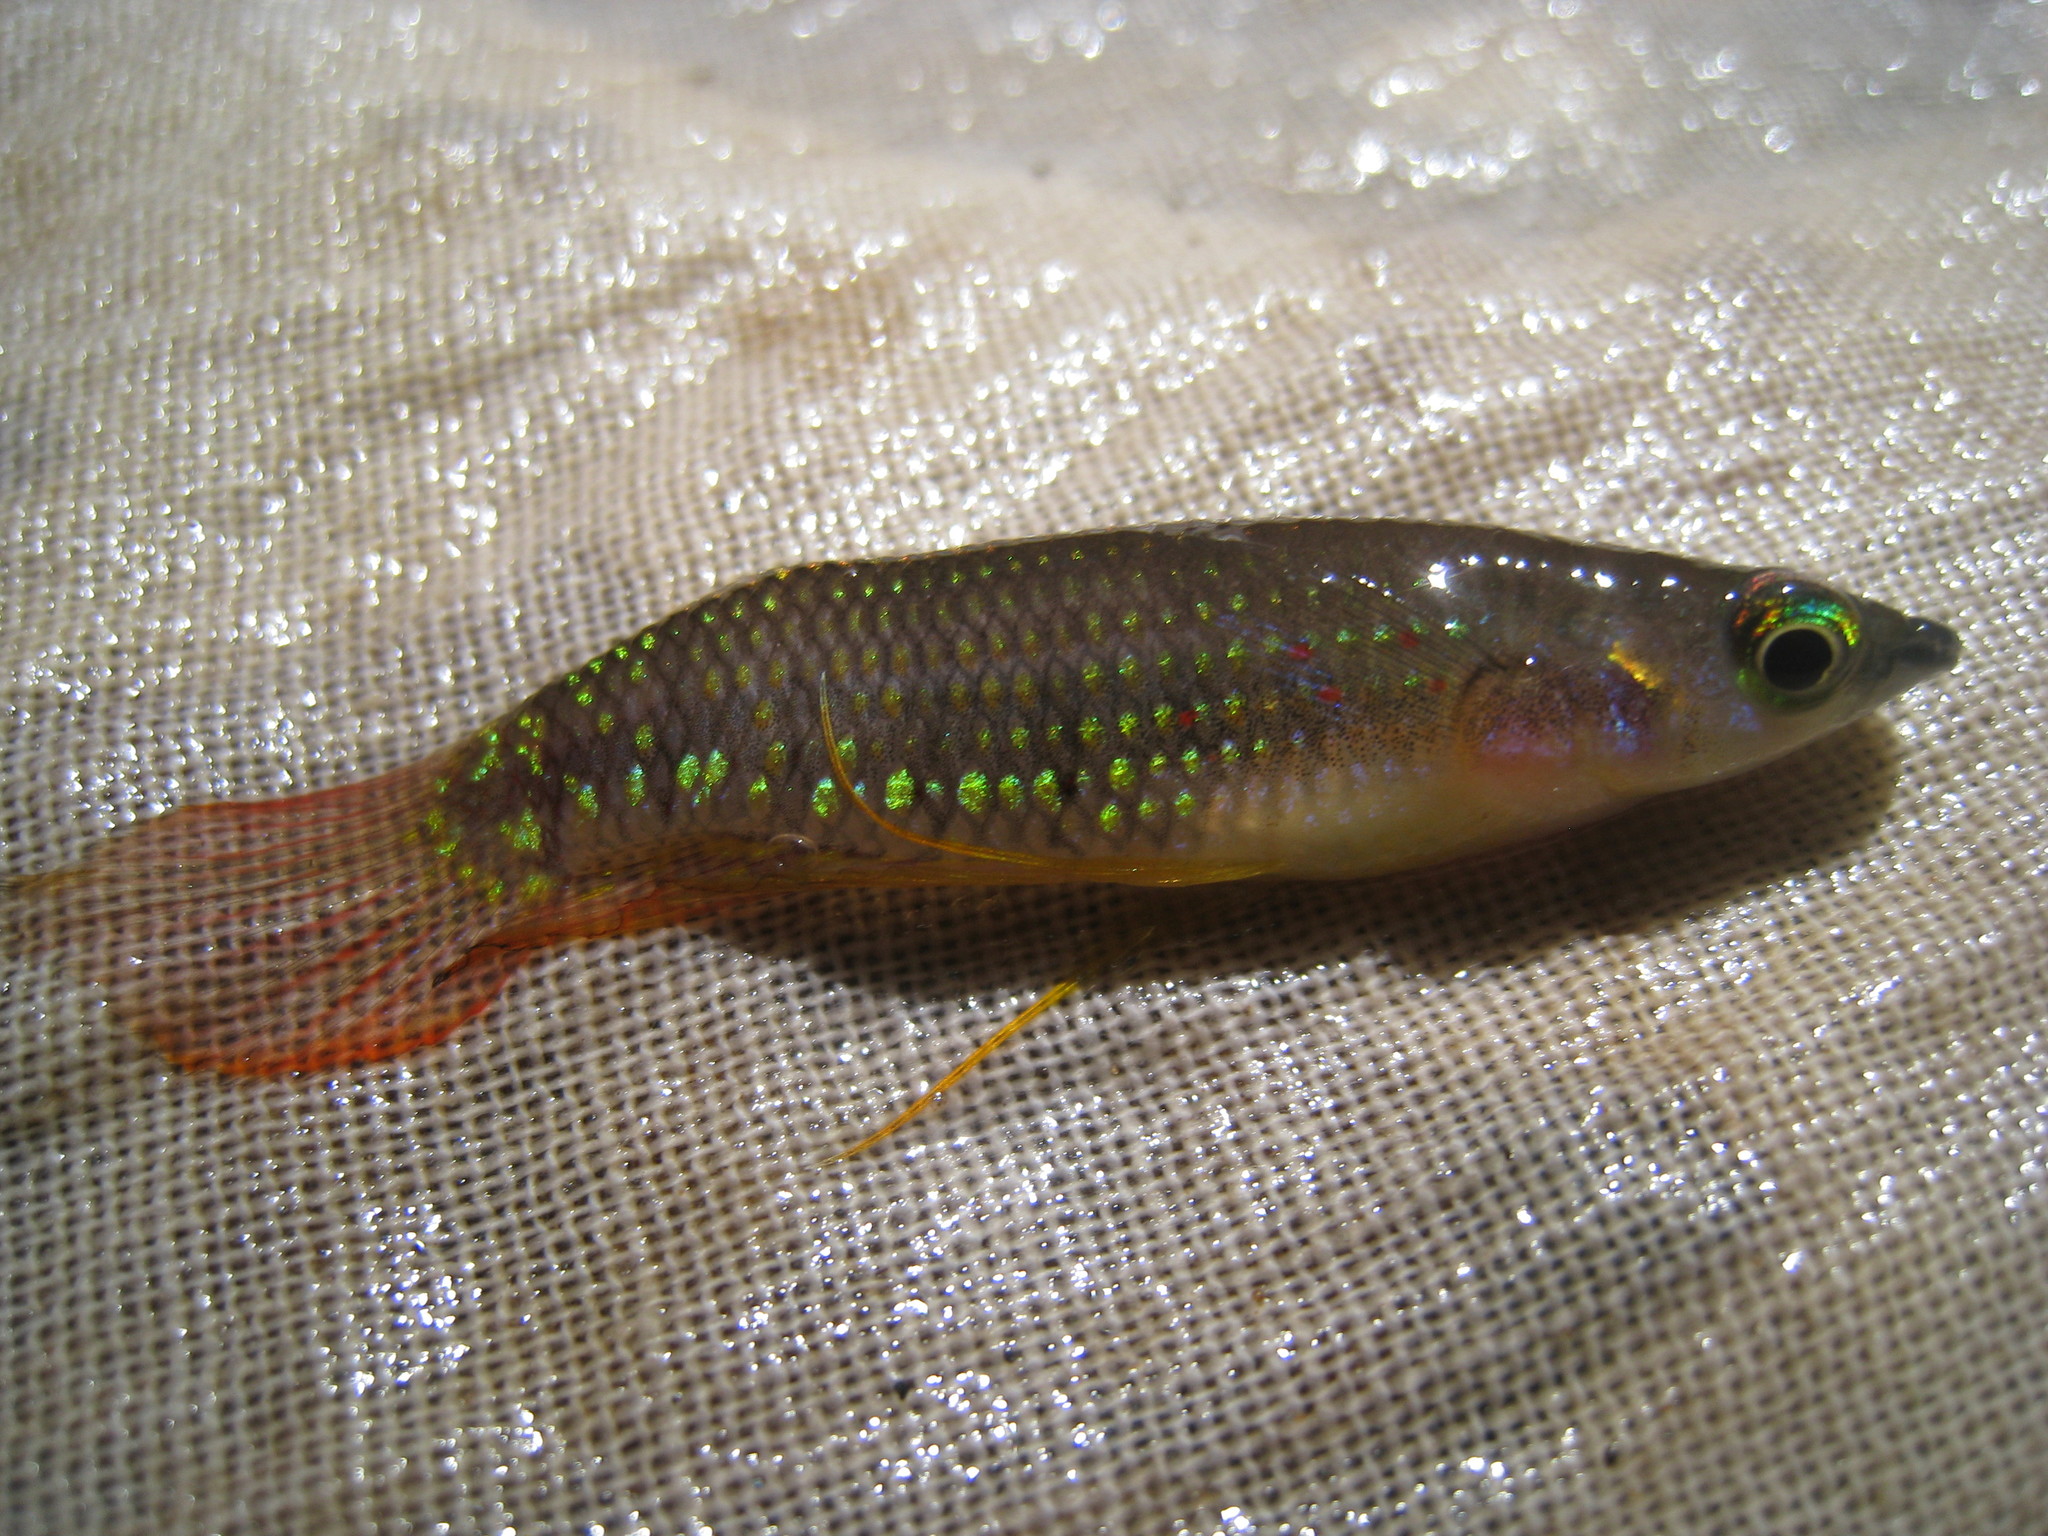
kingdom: Animalia
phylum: Chordata
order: Cyprinodontiformes
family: Aplocheilidae
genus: Aplocheilus
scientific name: Aplocheilus lineatus
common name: Striped panchax
